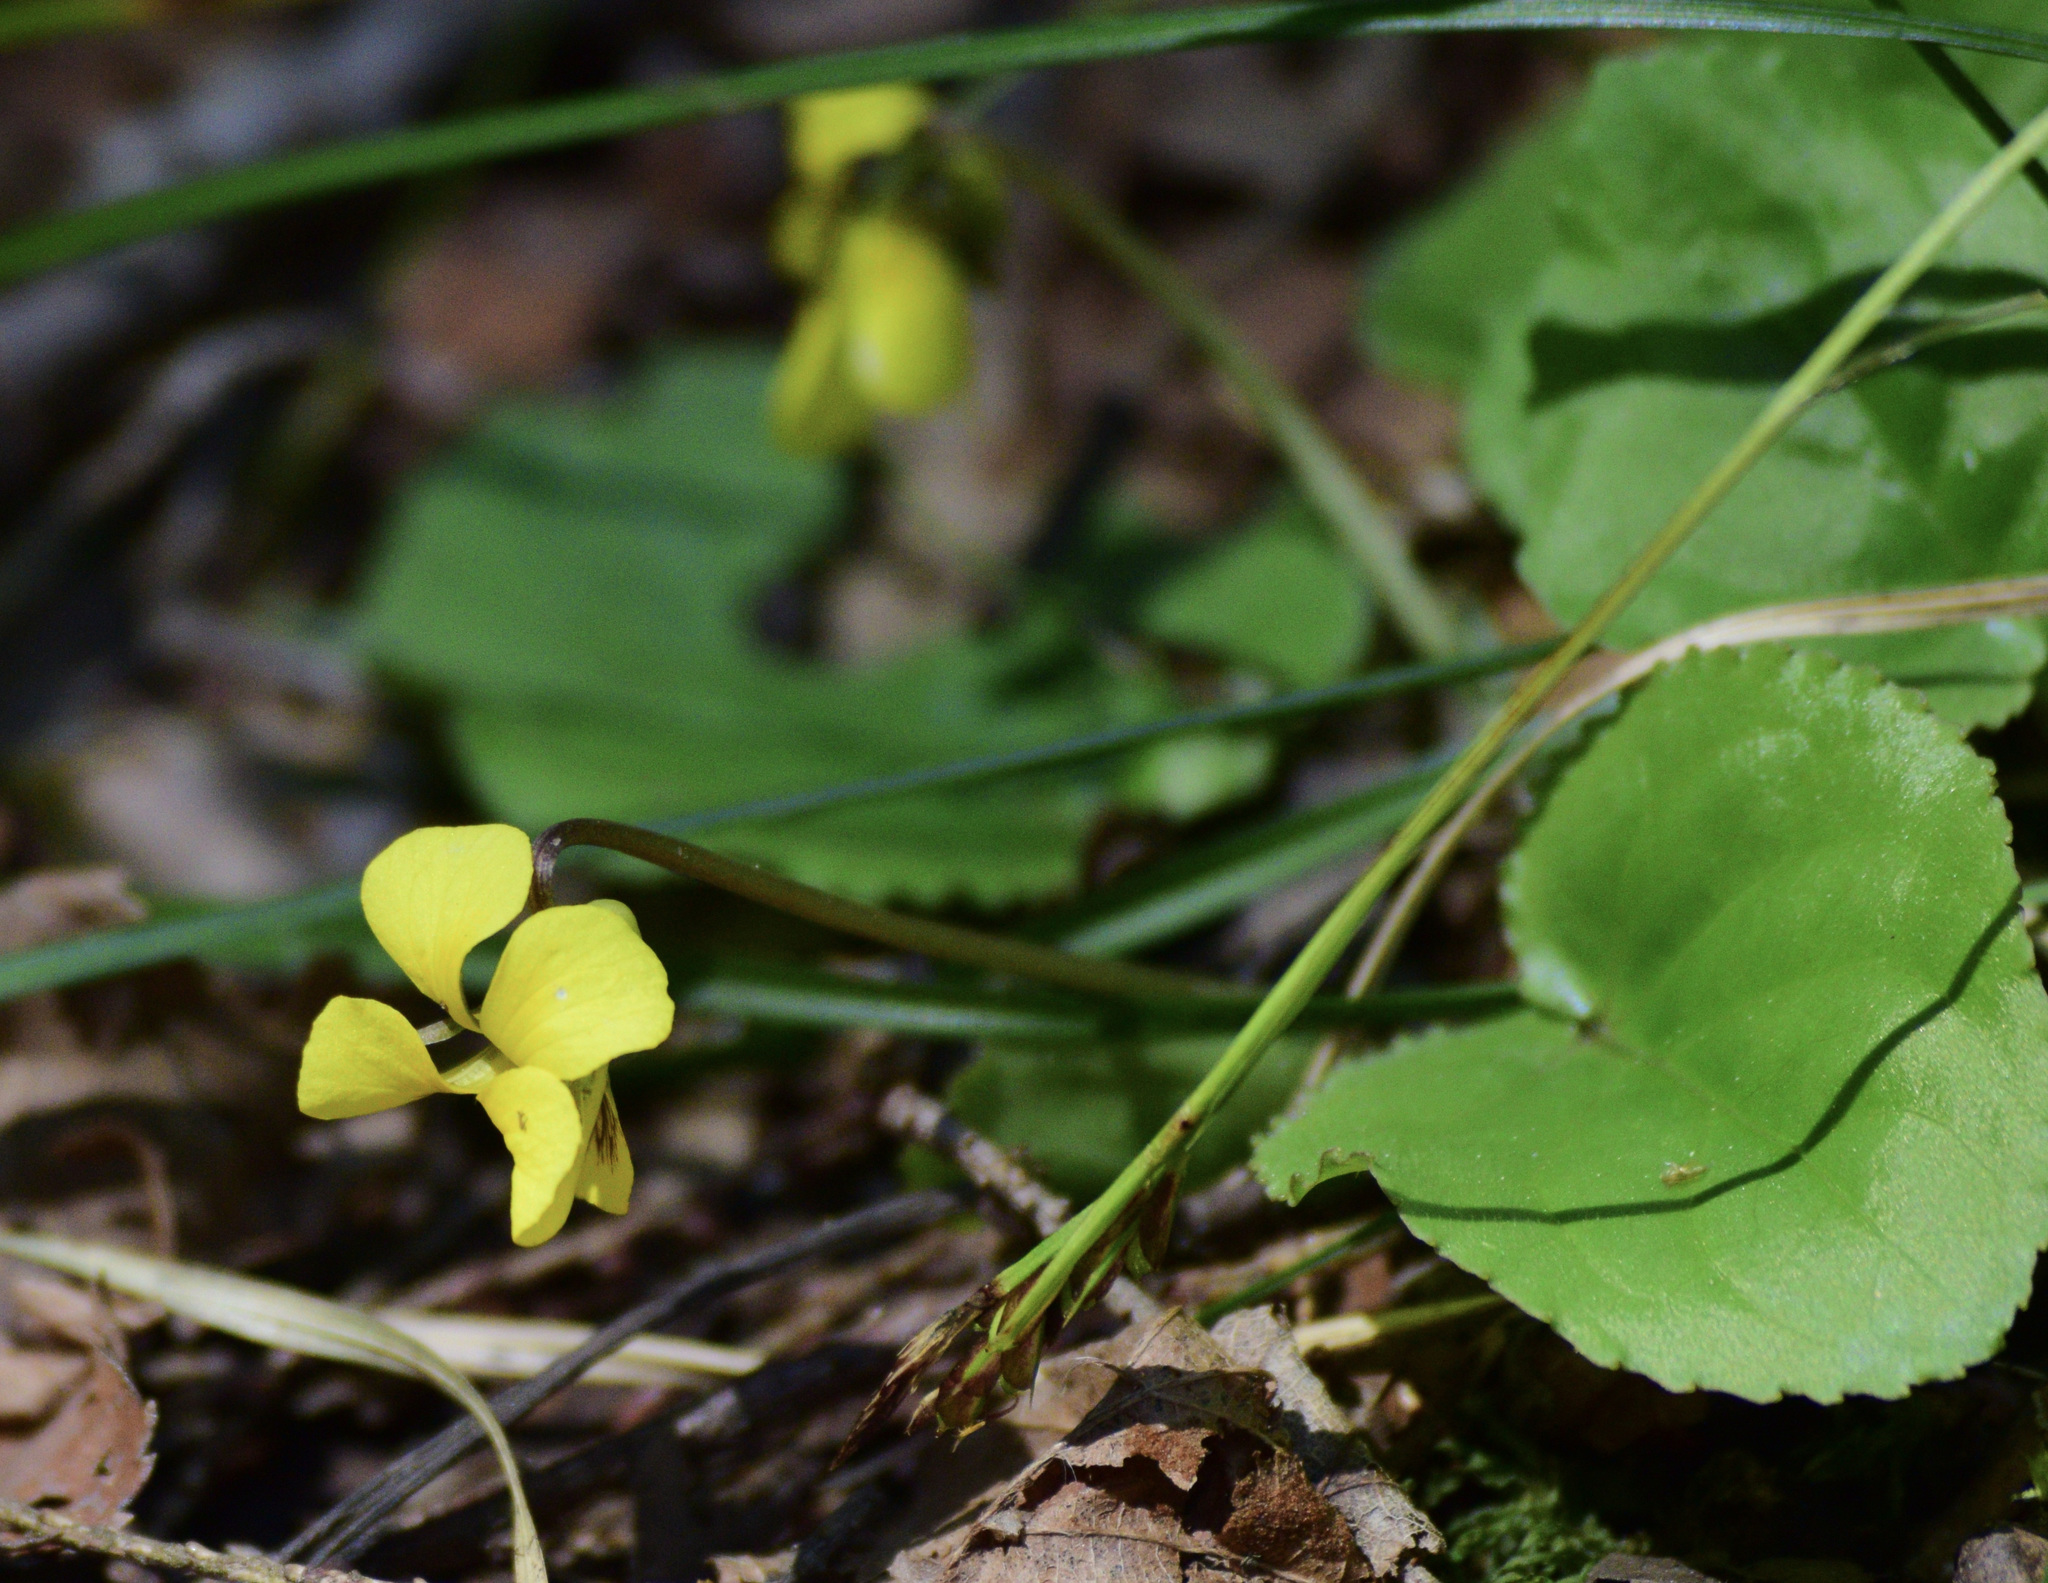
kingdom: Plantae
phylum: Tracheophyta
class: Magnoliopsida
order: Malpighiales
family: Violaceae
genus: Viola
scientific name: Viola rotundifolia
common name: Early yellow violet
